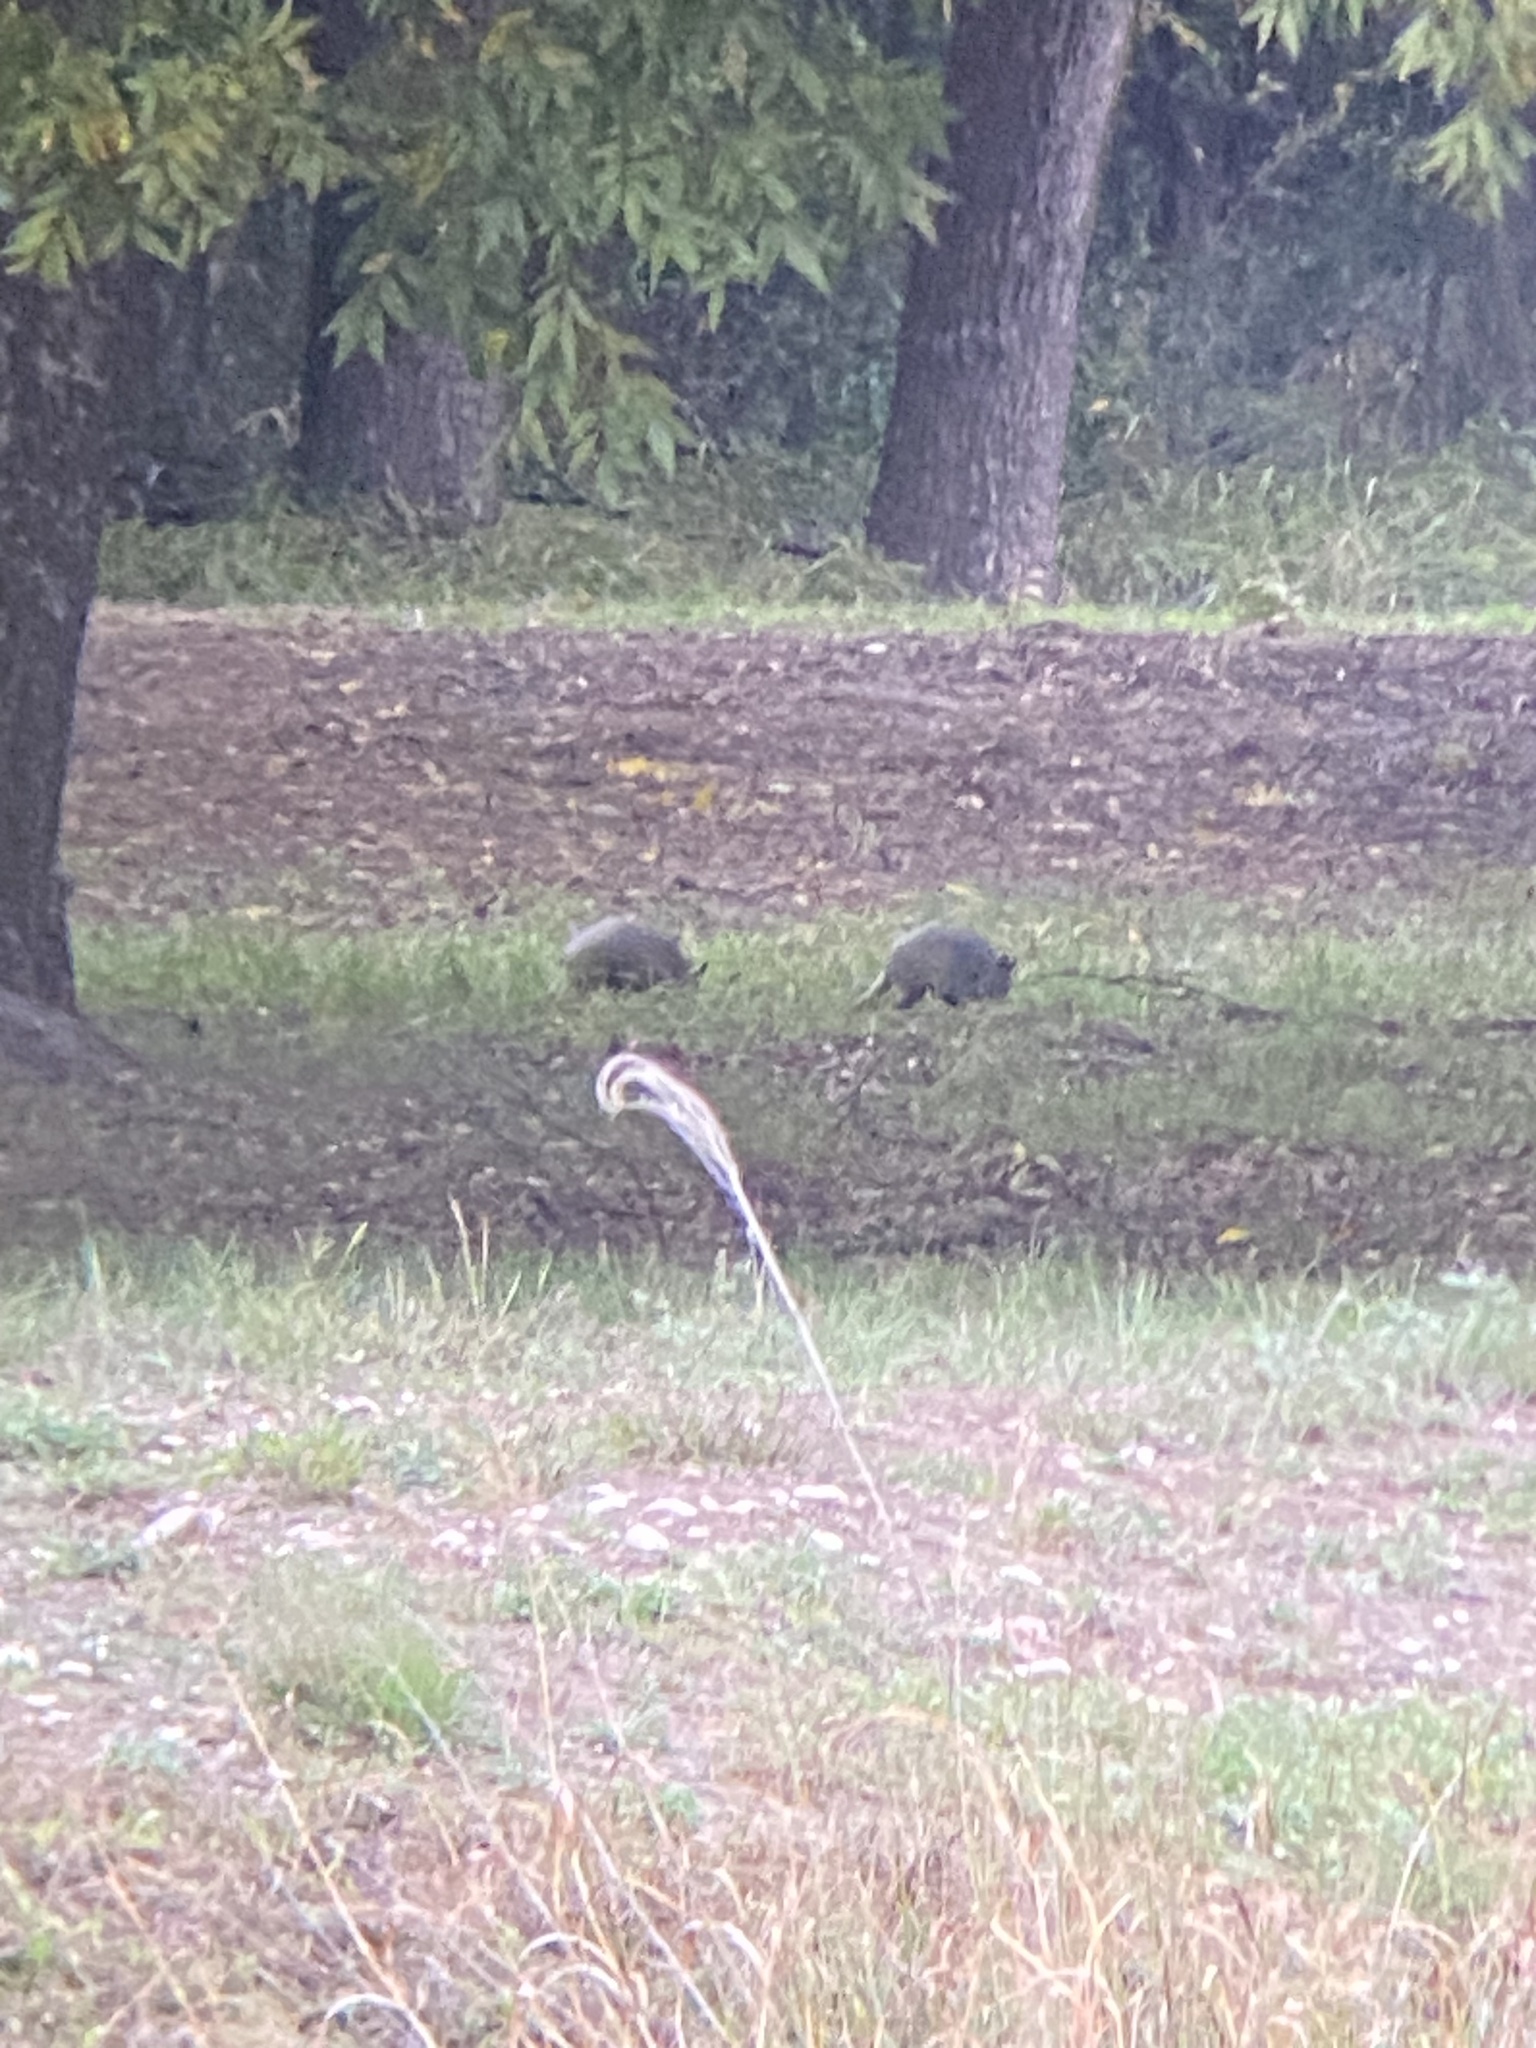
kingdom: Animalia
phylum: Chordata
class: Mammalia
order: Cingulata
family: Dasypodidae
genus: Dasypus
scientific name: Dasypus novemcinctus
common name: Nine-banded armadillo
